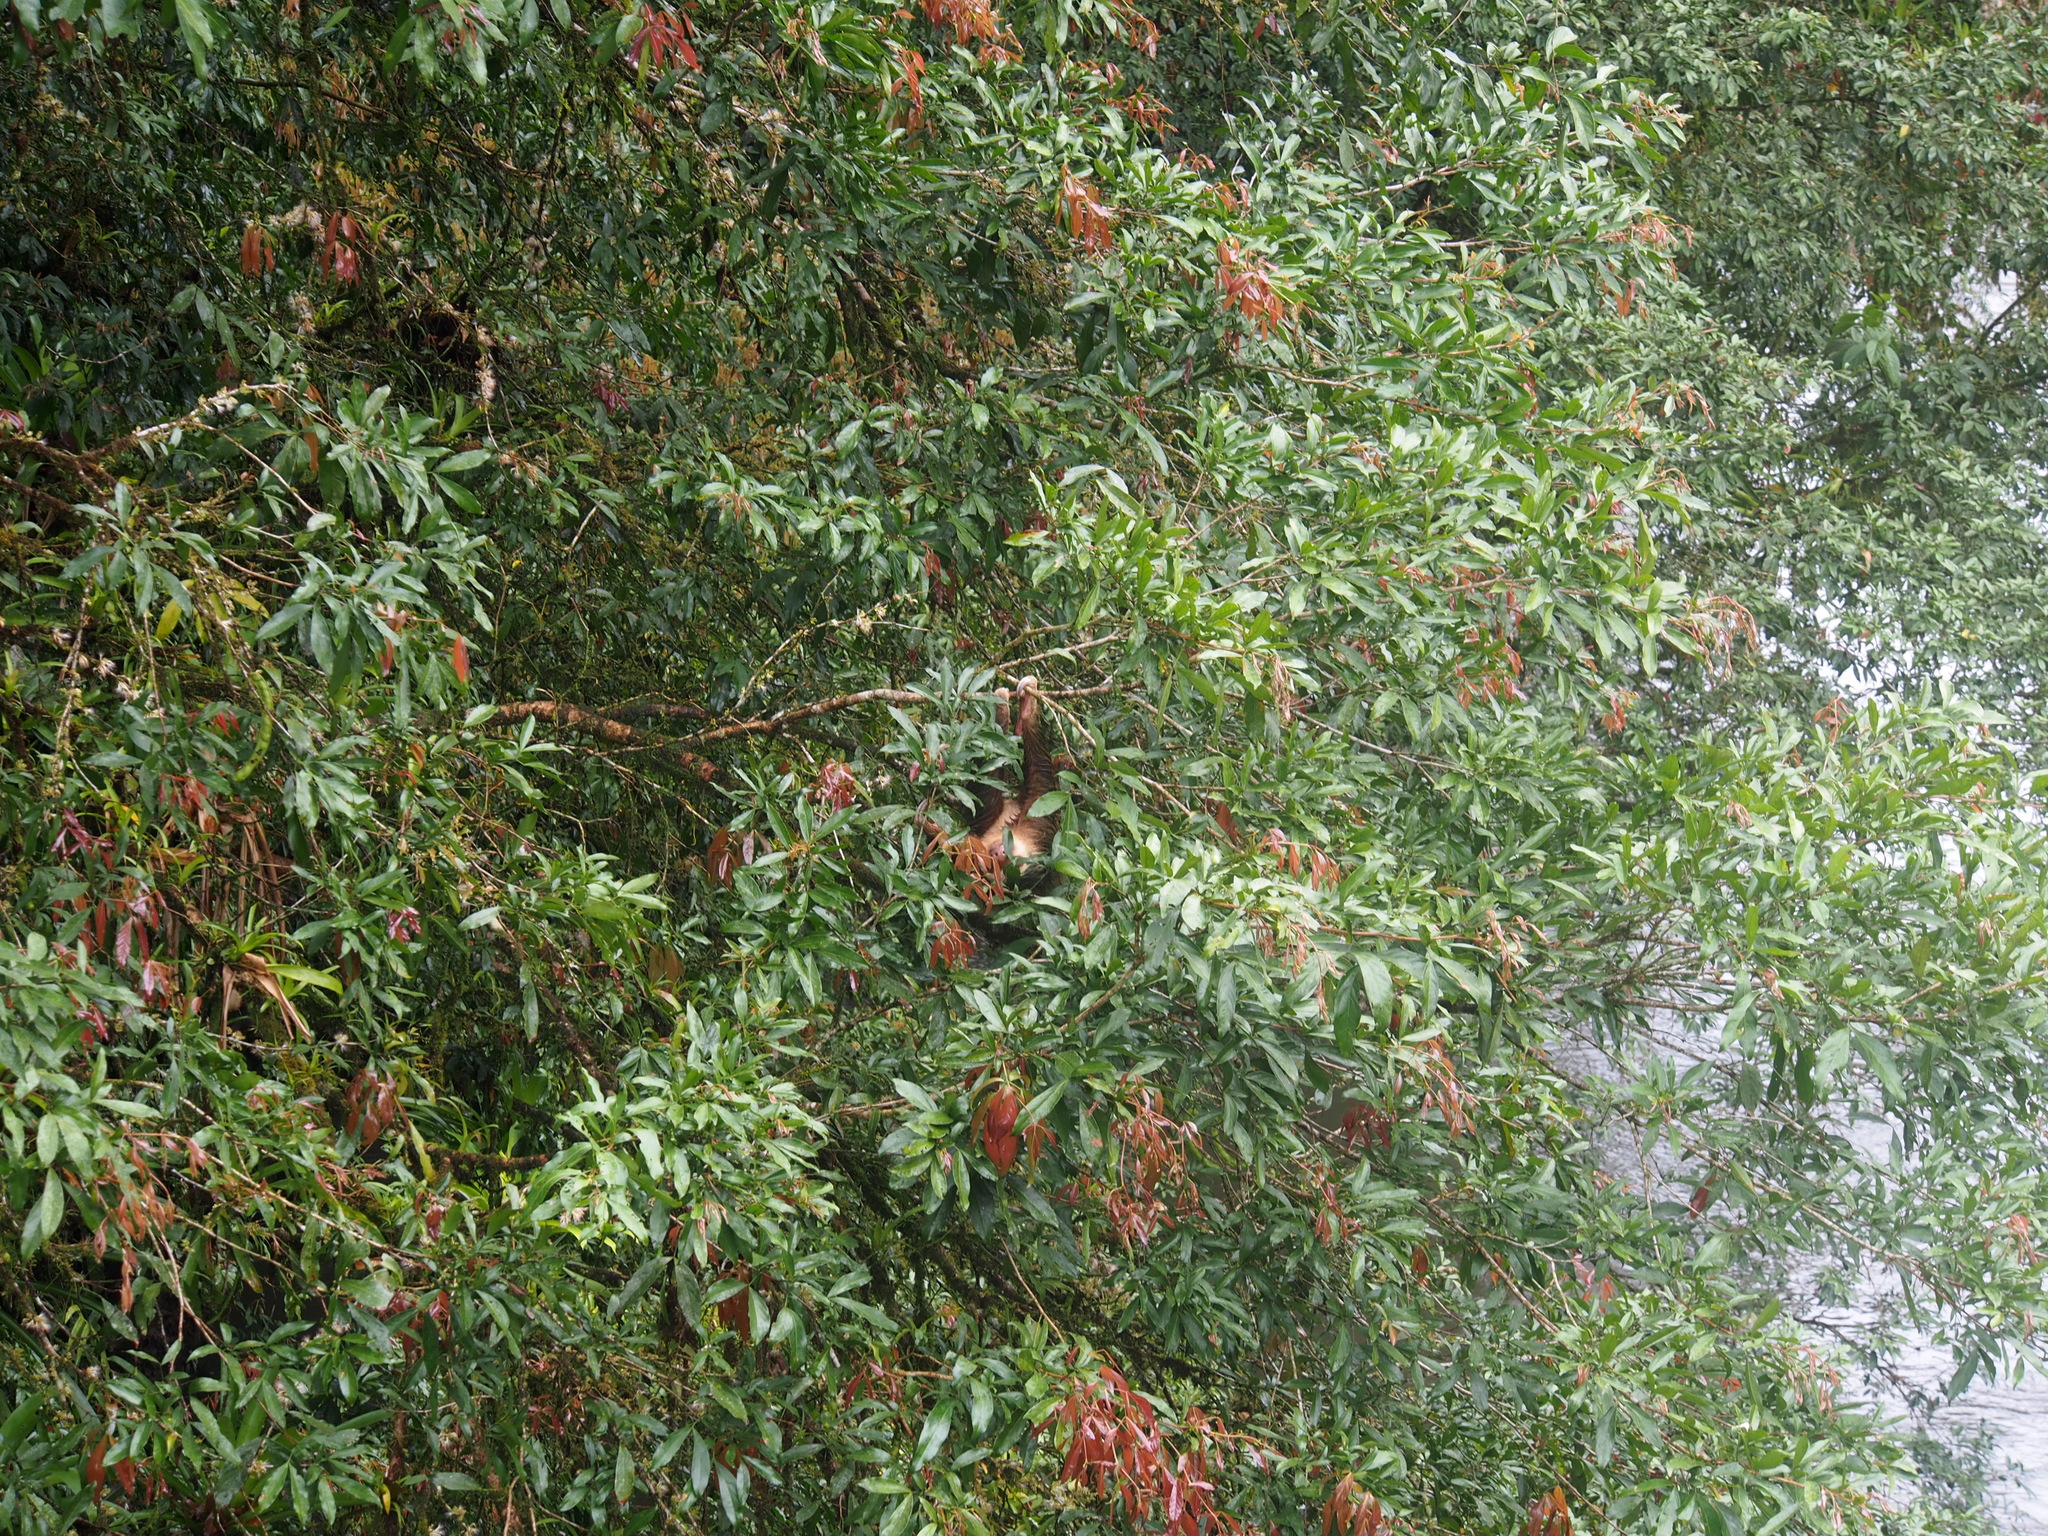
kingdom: Animalia
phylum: Chordata
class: Mammalia
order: Pilosa
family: Megalonychidae
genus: Choloepus
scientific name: Choloepus hoffmanni
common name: Hoffmann's two-toed sloth
